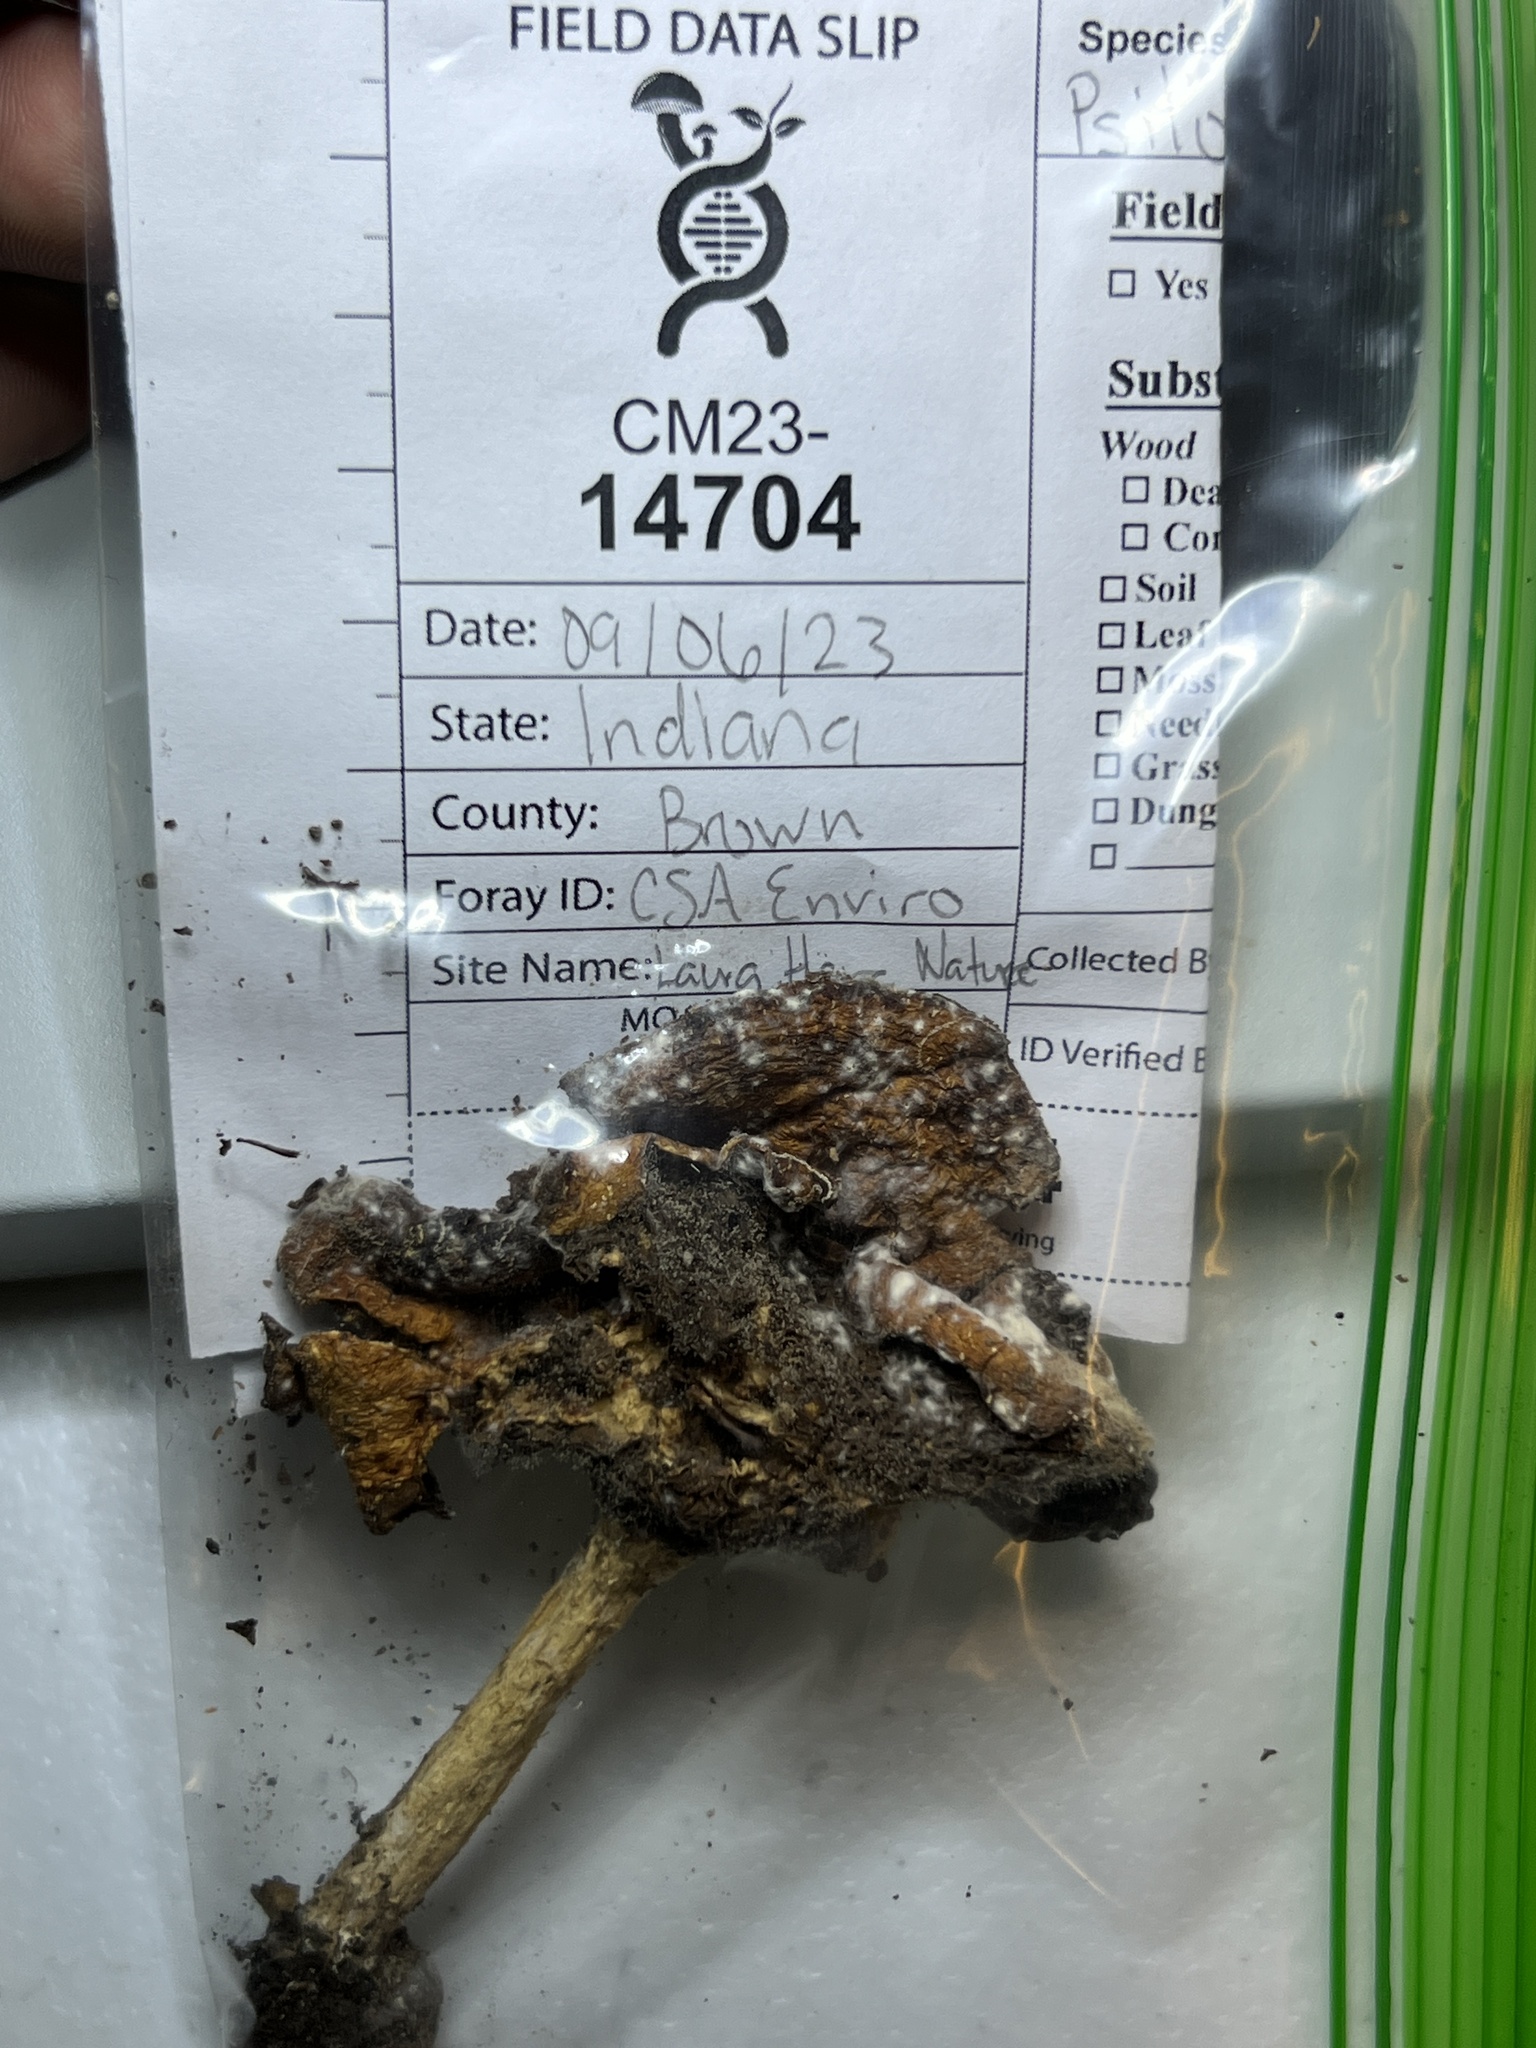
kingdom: Fungi
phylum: Basidiomycota
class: Agaricomycetes
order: Agaricales
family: Strophariaceae
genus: Stropharia
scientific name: Stropharia hardii
